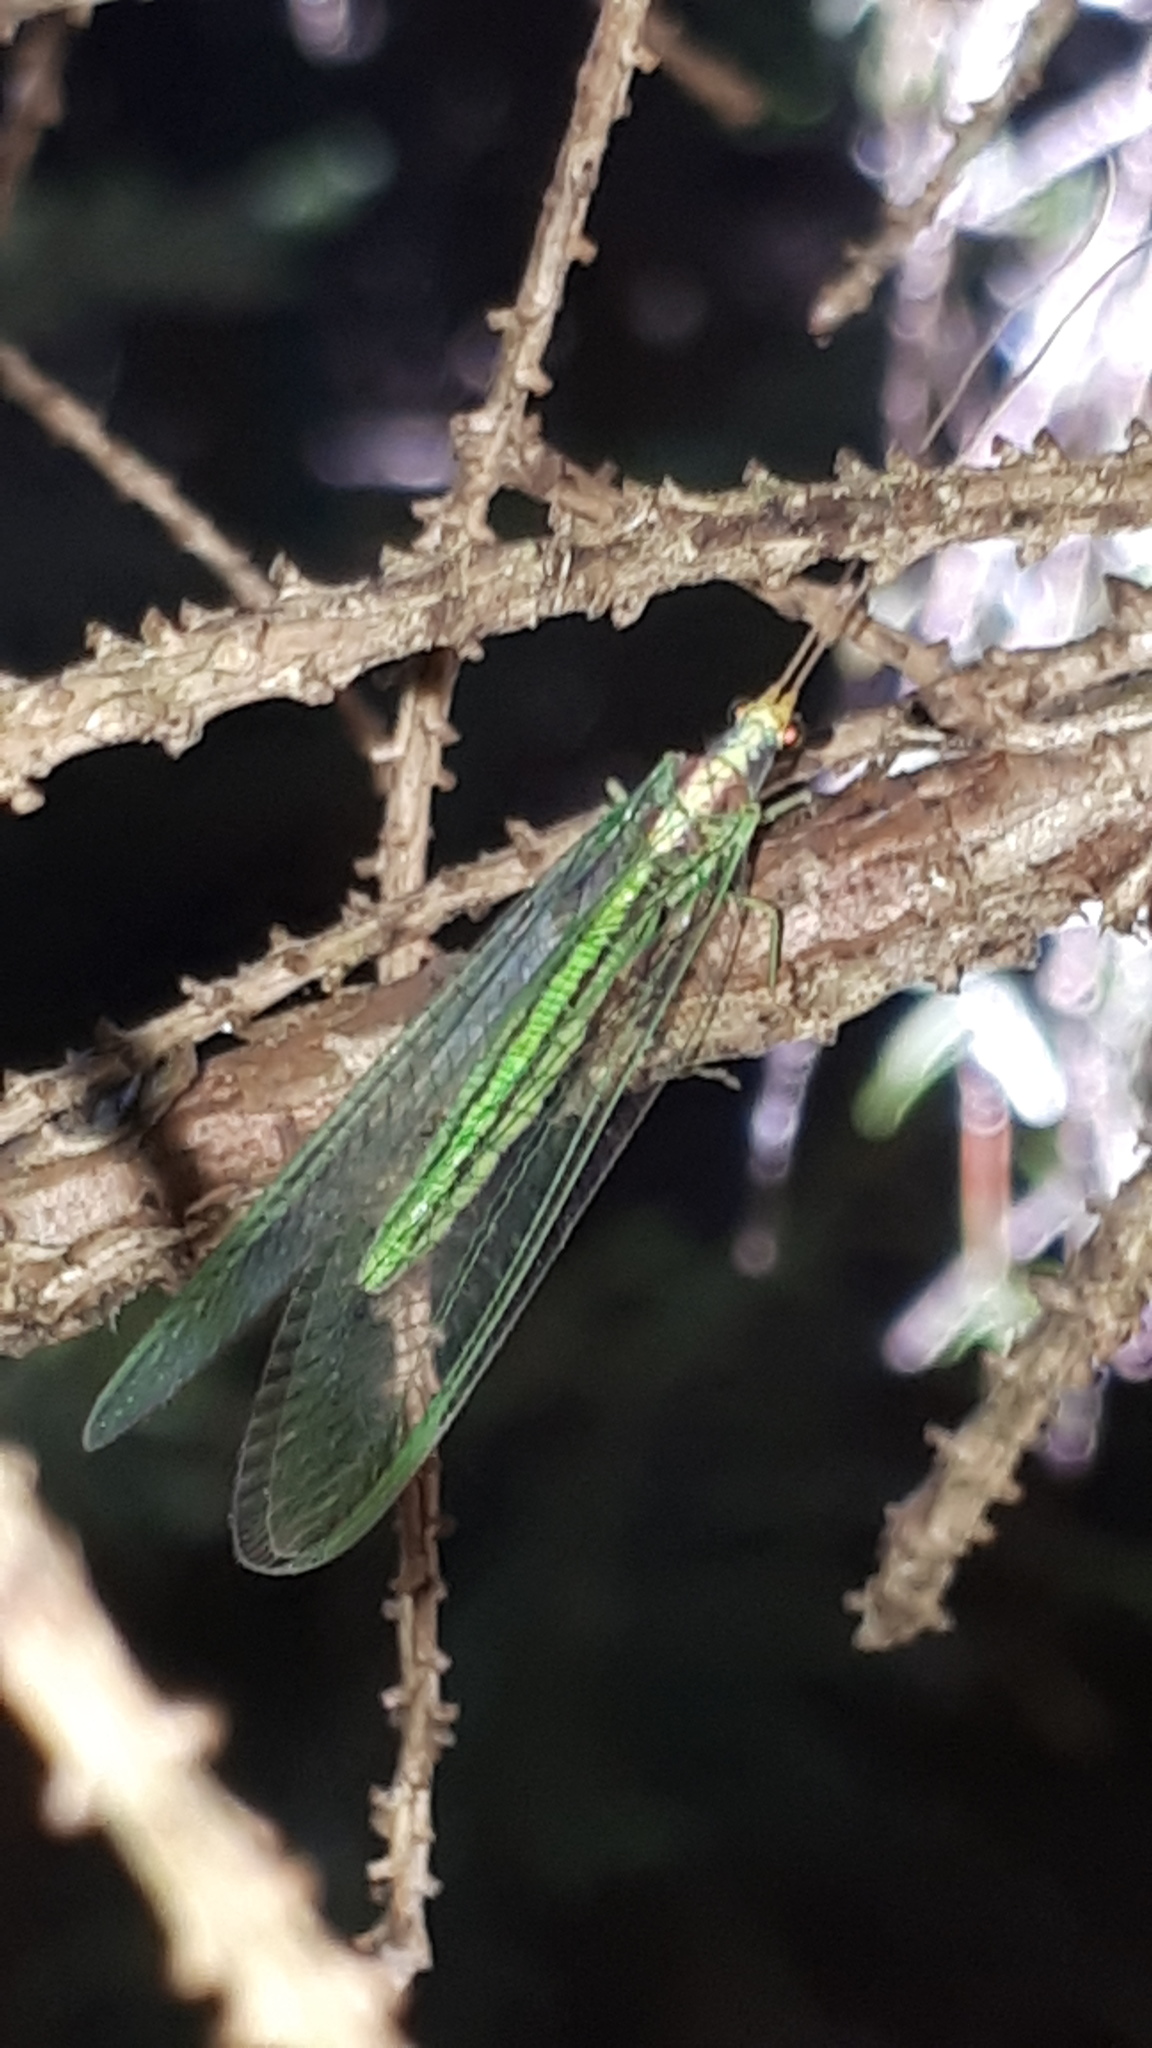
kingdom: Animalia
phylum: Arthropoda
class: Insecta
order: Neuroptera
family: Chrysopidae
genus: Nineta
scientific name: Nineta pallida
